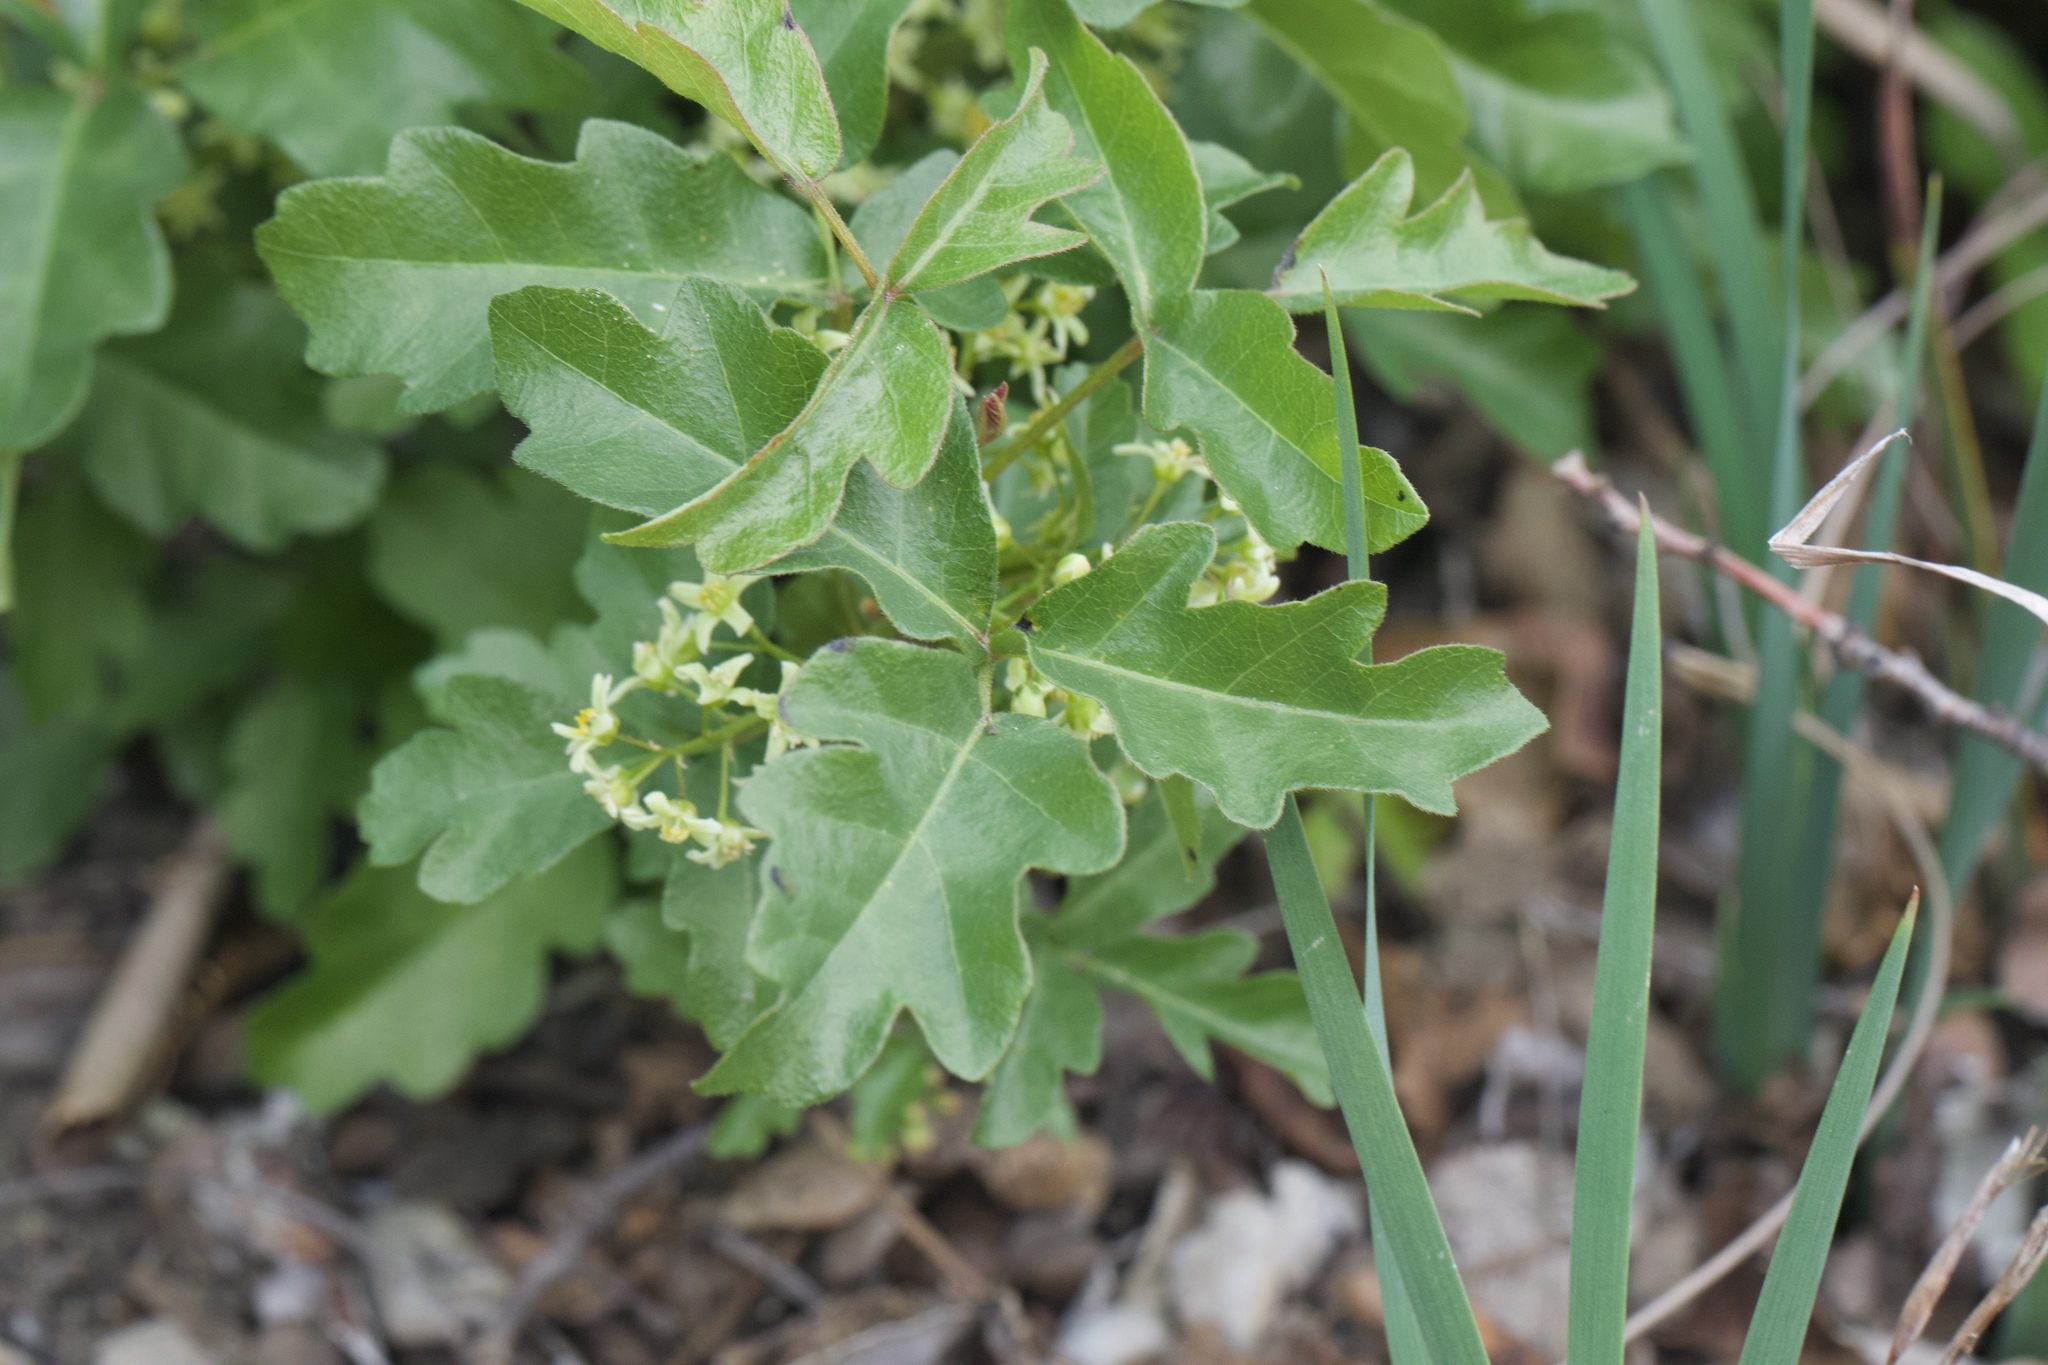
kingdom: Plantae
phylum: Tracheophyta
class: Magnoliopsida
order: Sapindales
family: Anacardiaceae
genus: Toxicodendron
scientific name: Toxicodendron diversilobum
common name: Pacific poison-oak
